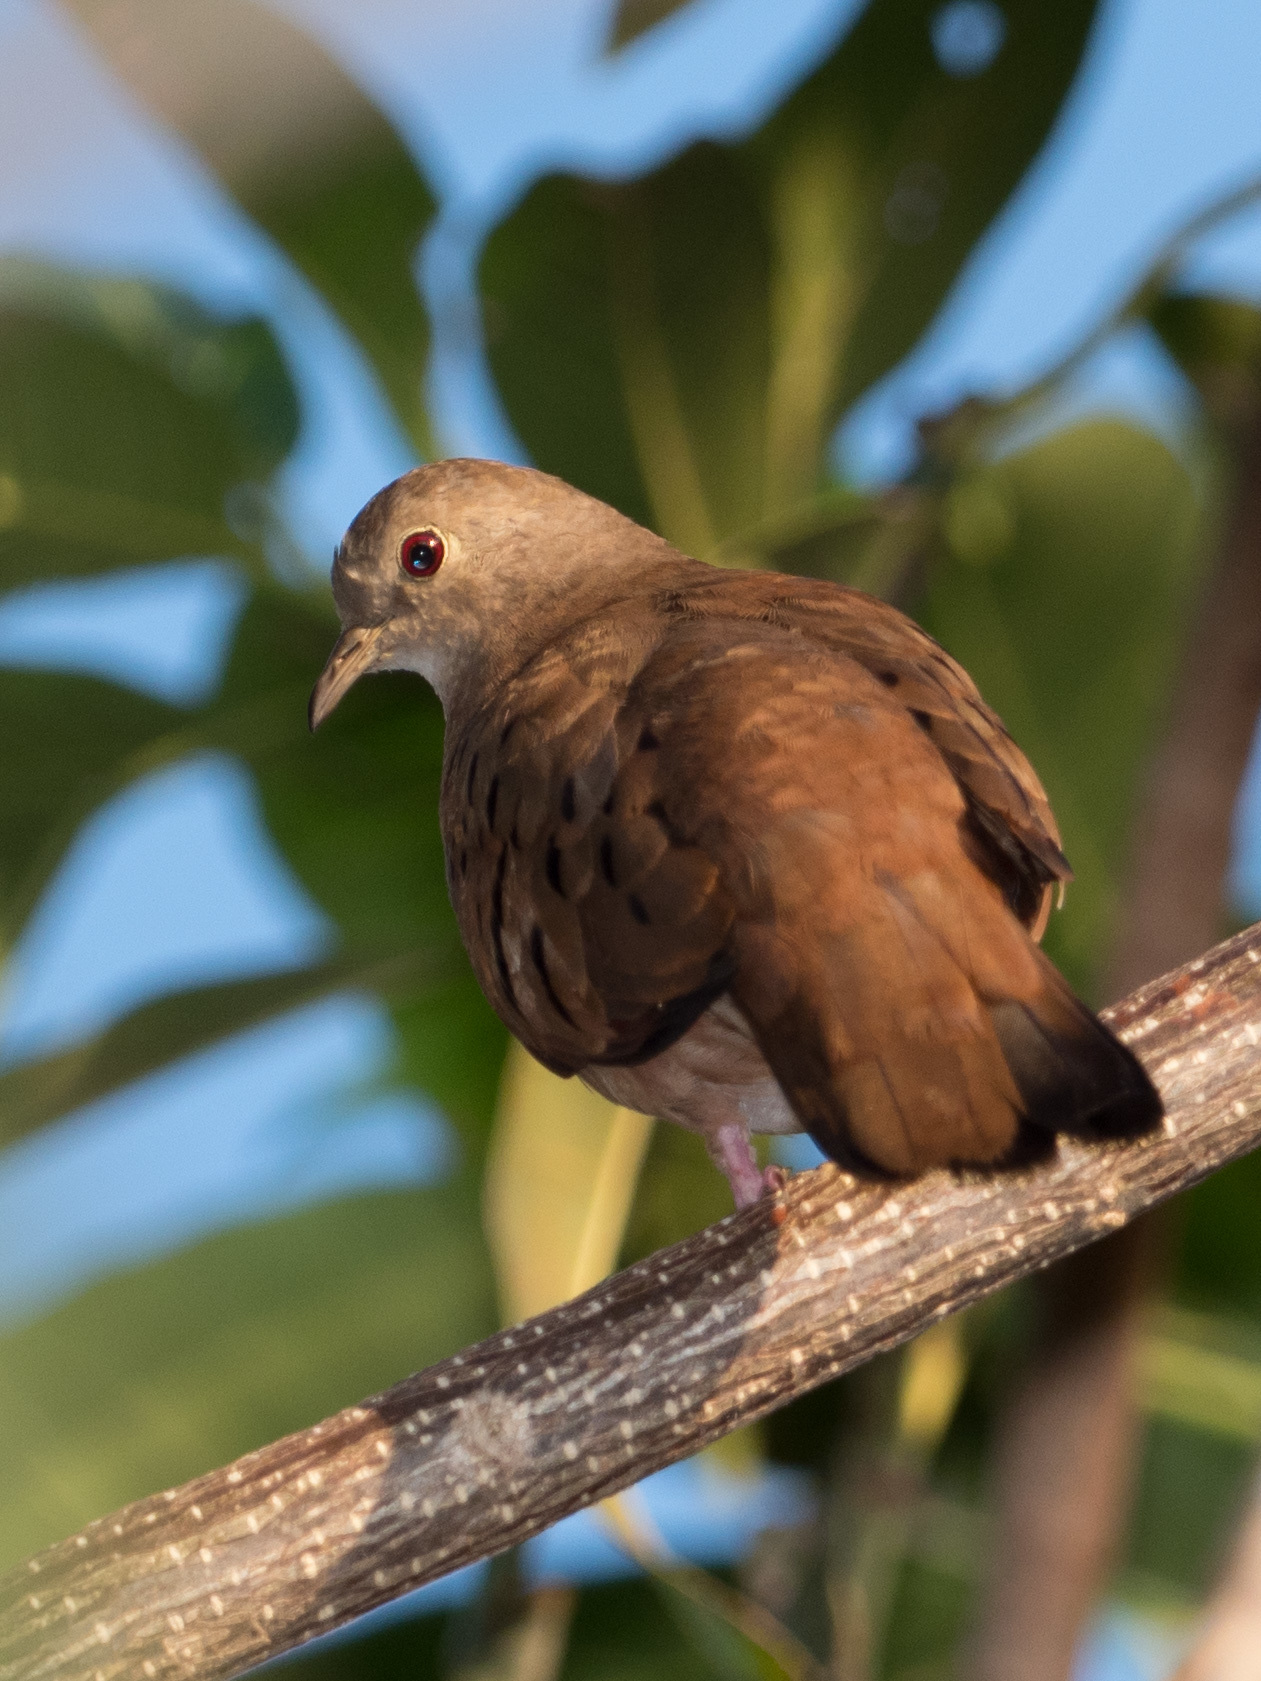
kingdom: Animalia
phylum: Chordata
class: Aves
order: Columbiformes
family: Columbidae
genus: Columbina
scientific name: Columbina talpacoti
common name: Ruddy ground dove
